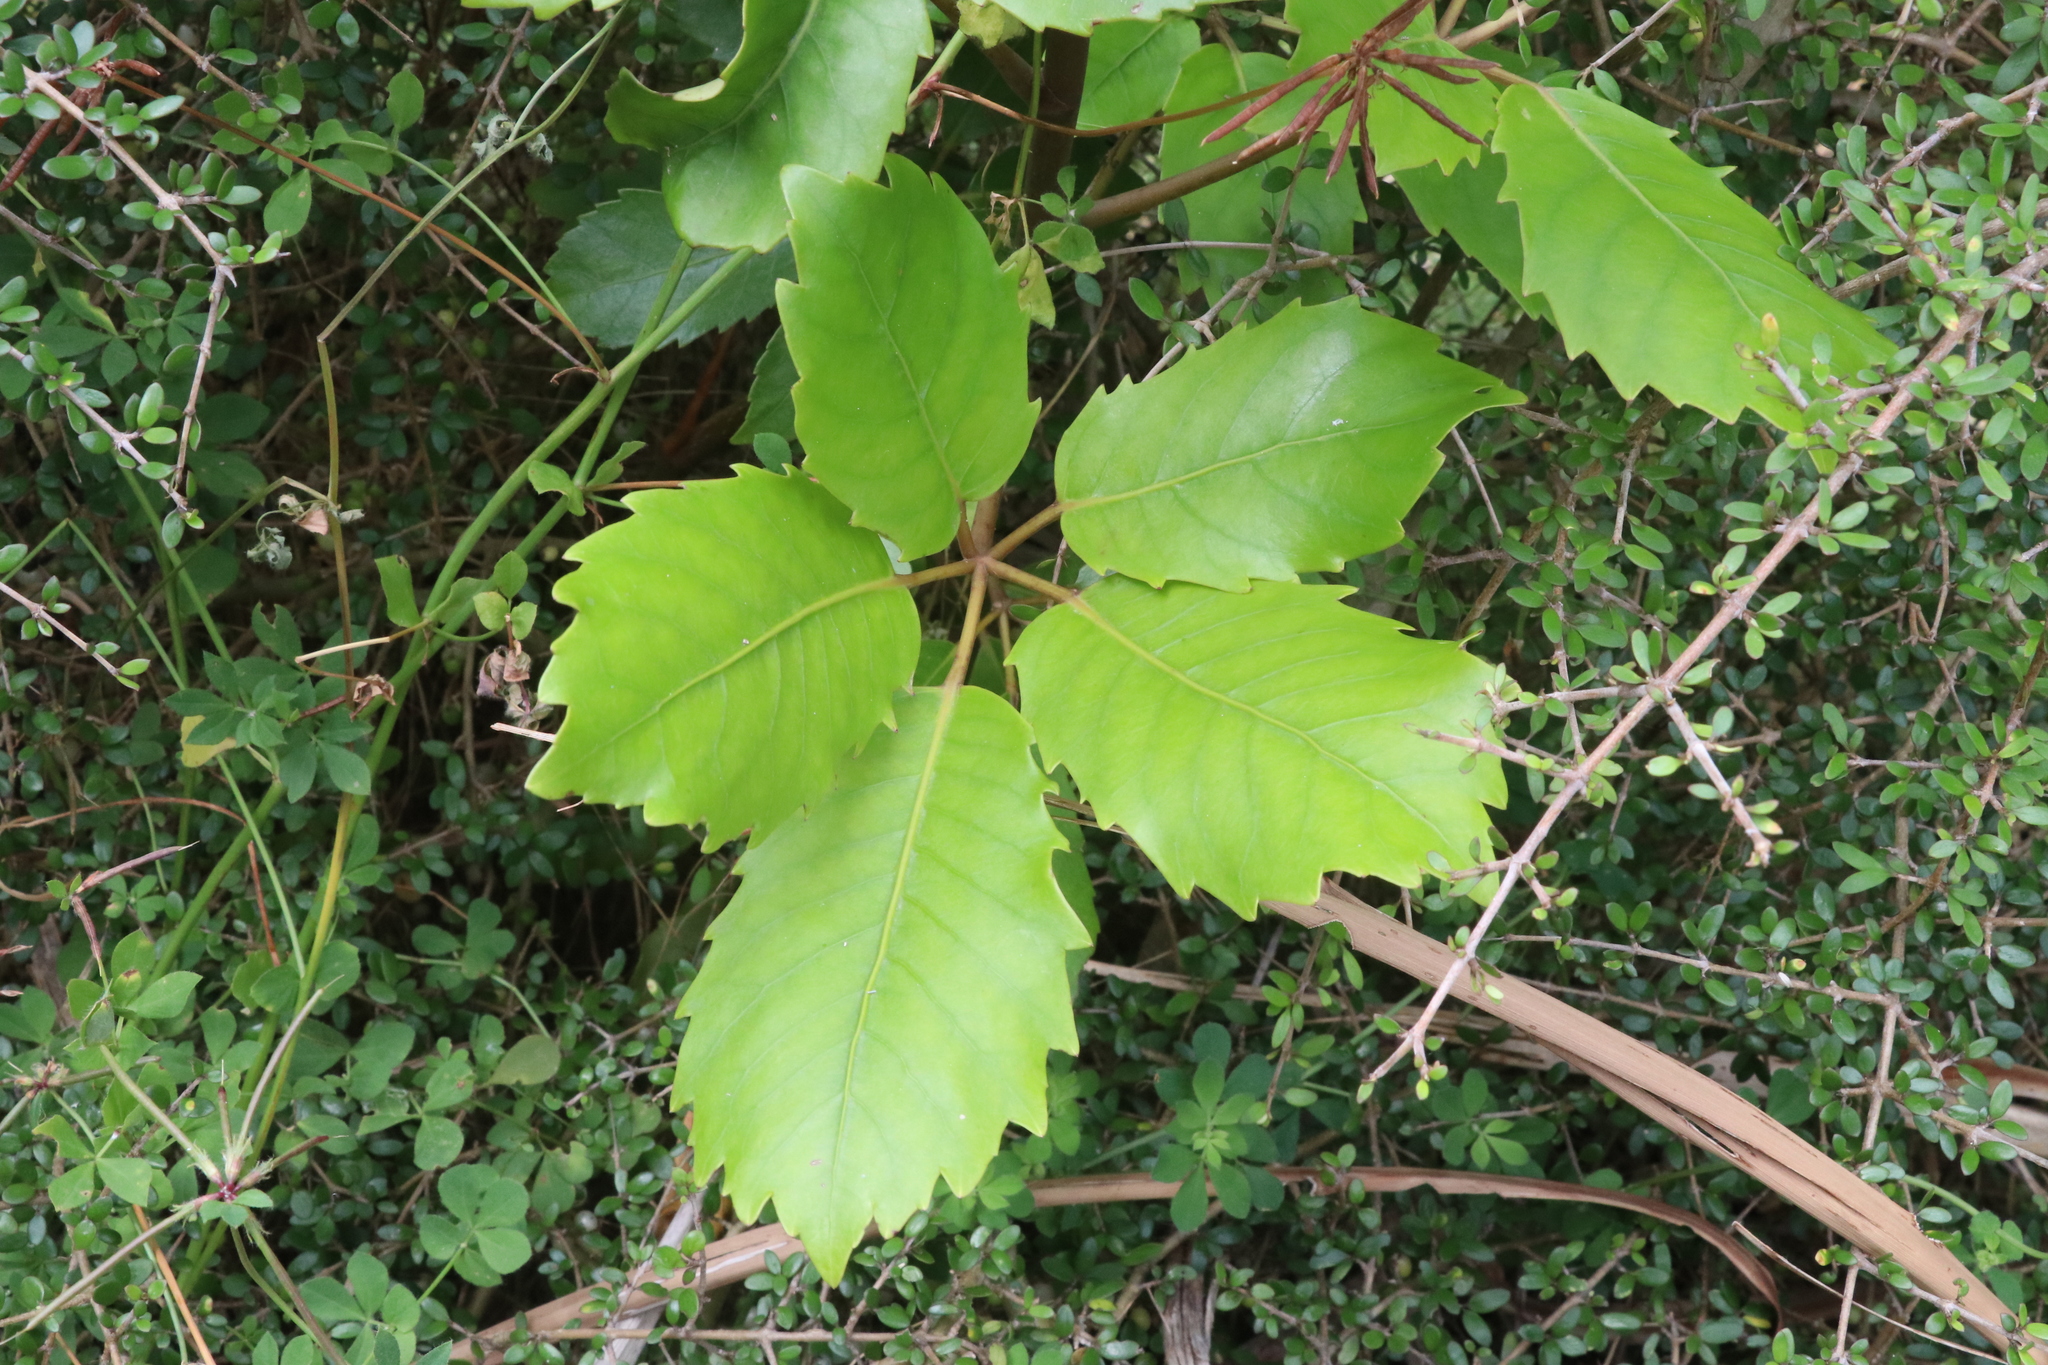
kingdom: Plantae
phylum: Tracheophyta
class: Magnoliopsida
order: Apiales
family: Araliaceae
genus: Neopanax
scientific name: Neopanax arboreus
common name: Five-fingers
